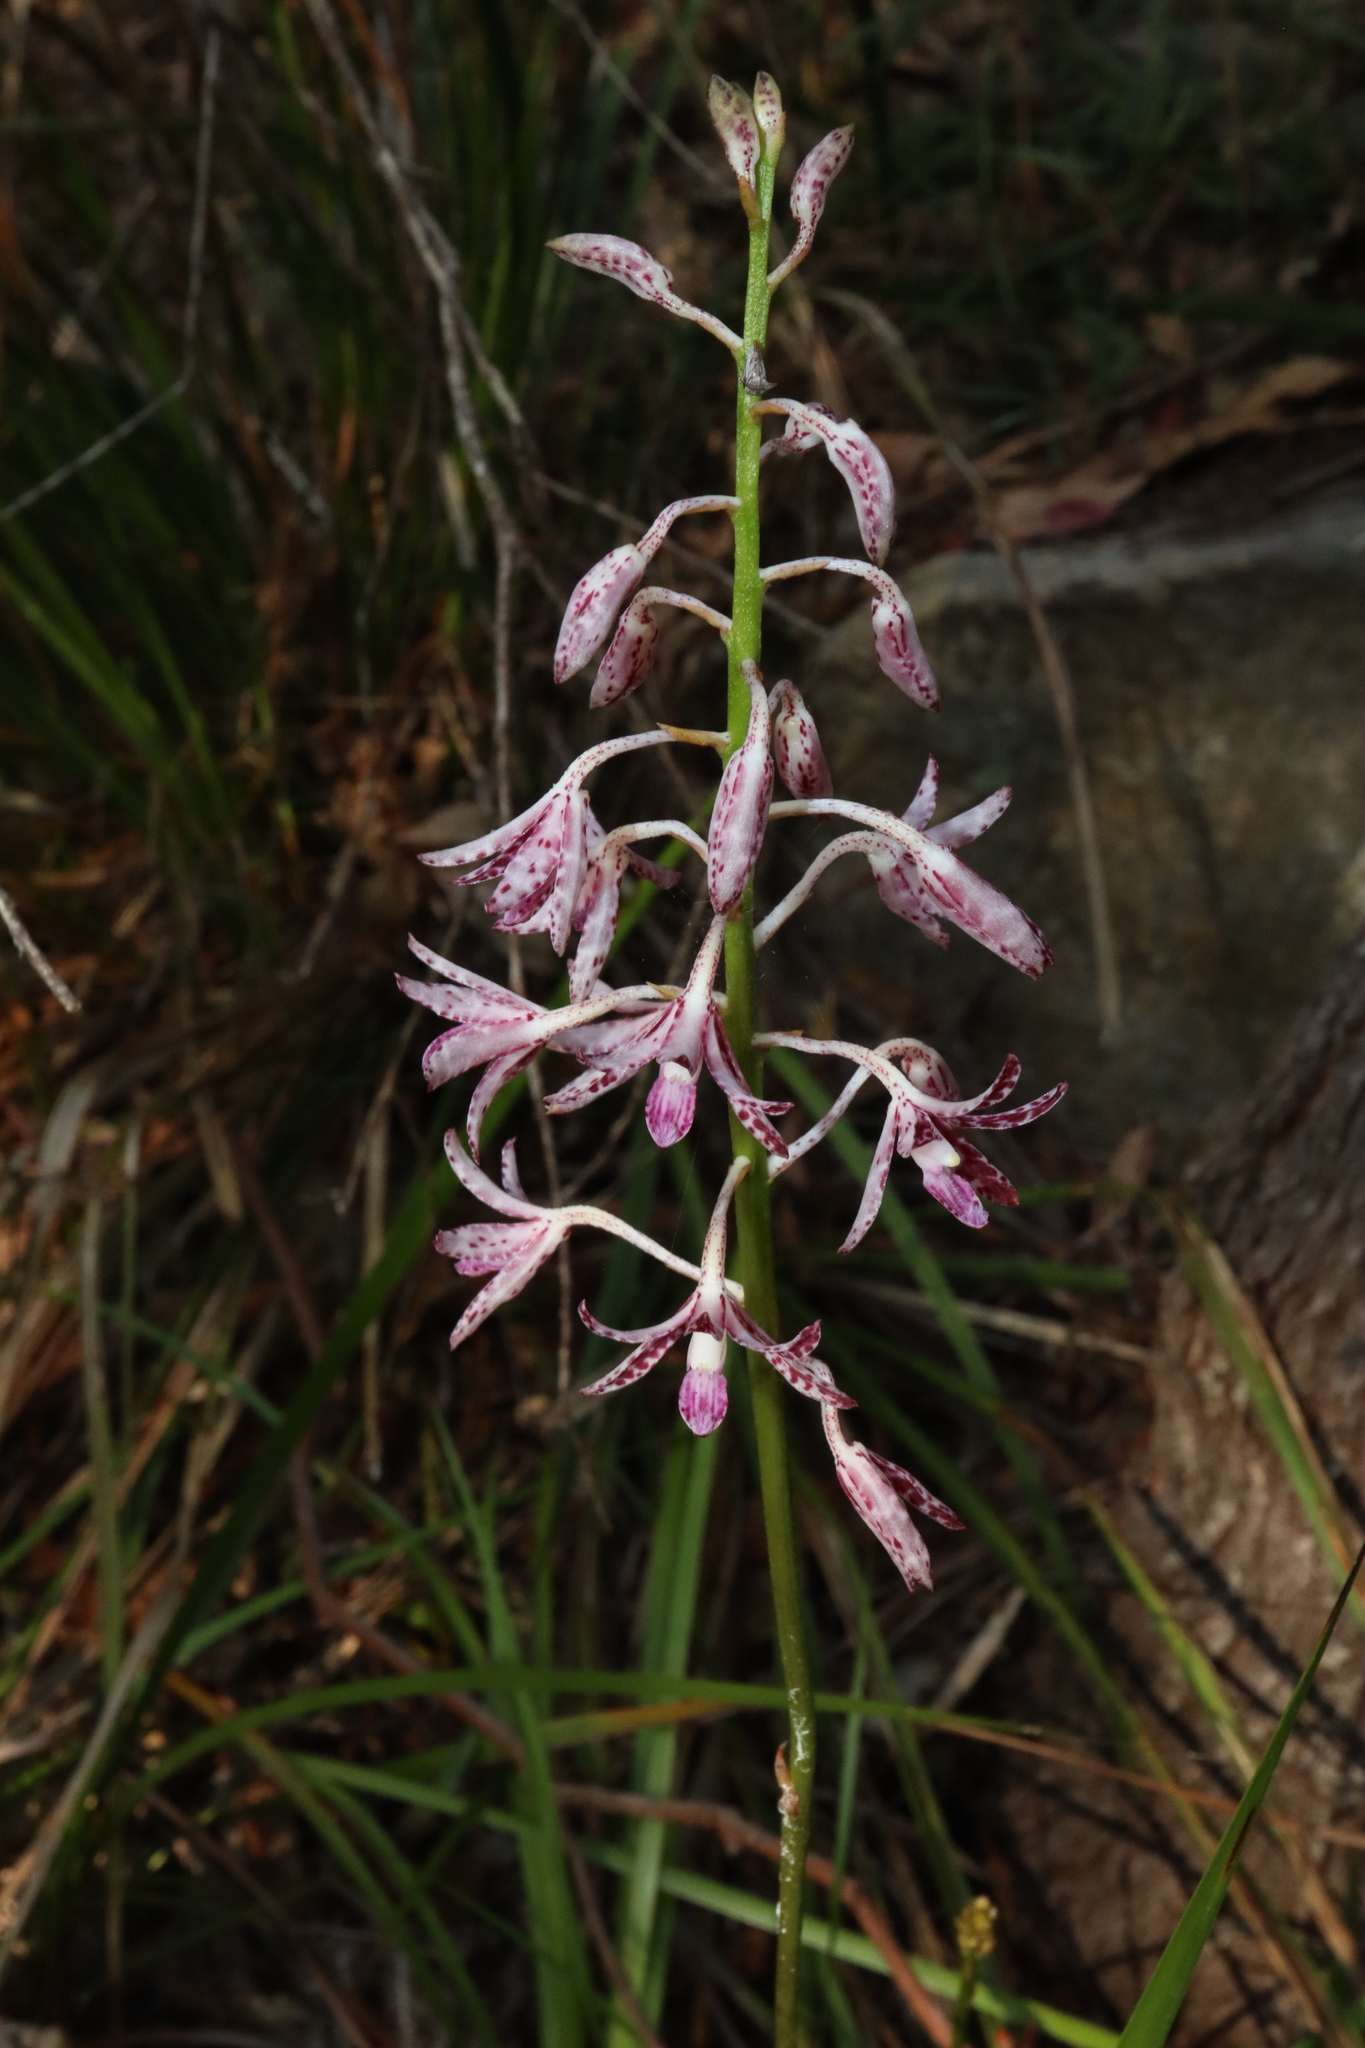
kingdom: Plantae
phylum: Tracheophyta
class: Liliopsida
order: Asparagales
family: Orchidaceae
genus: Dipodium
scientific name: Dipodium variegatum
